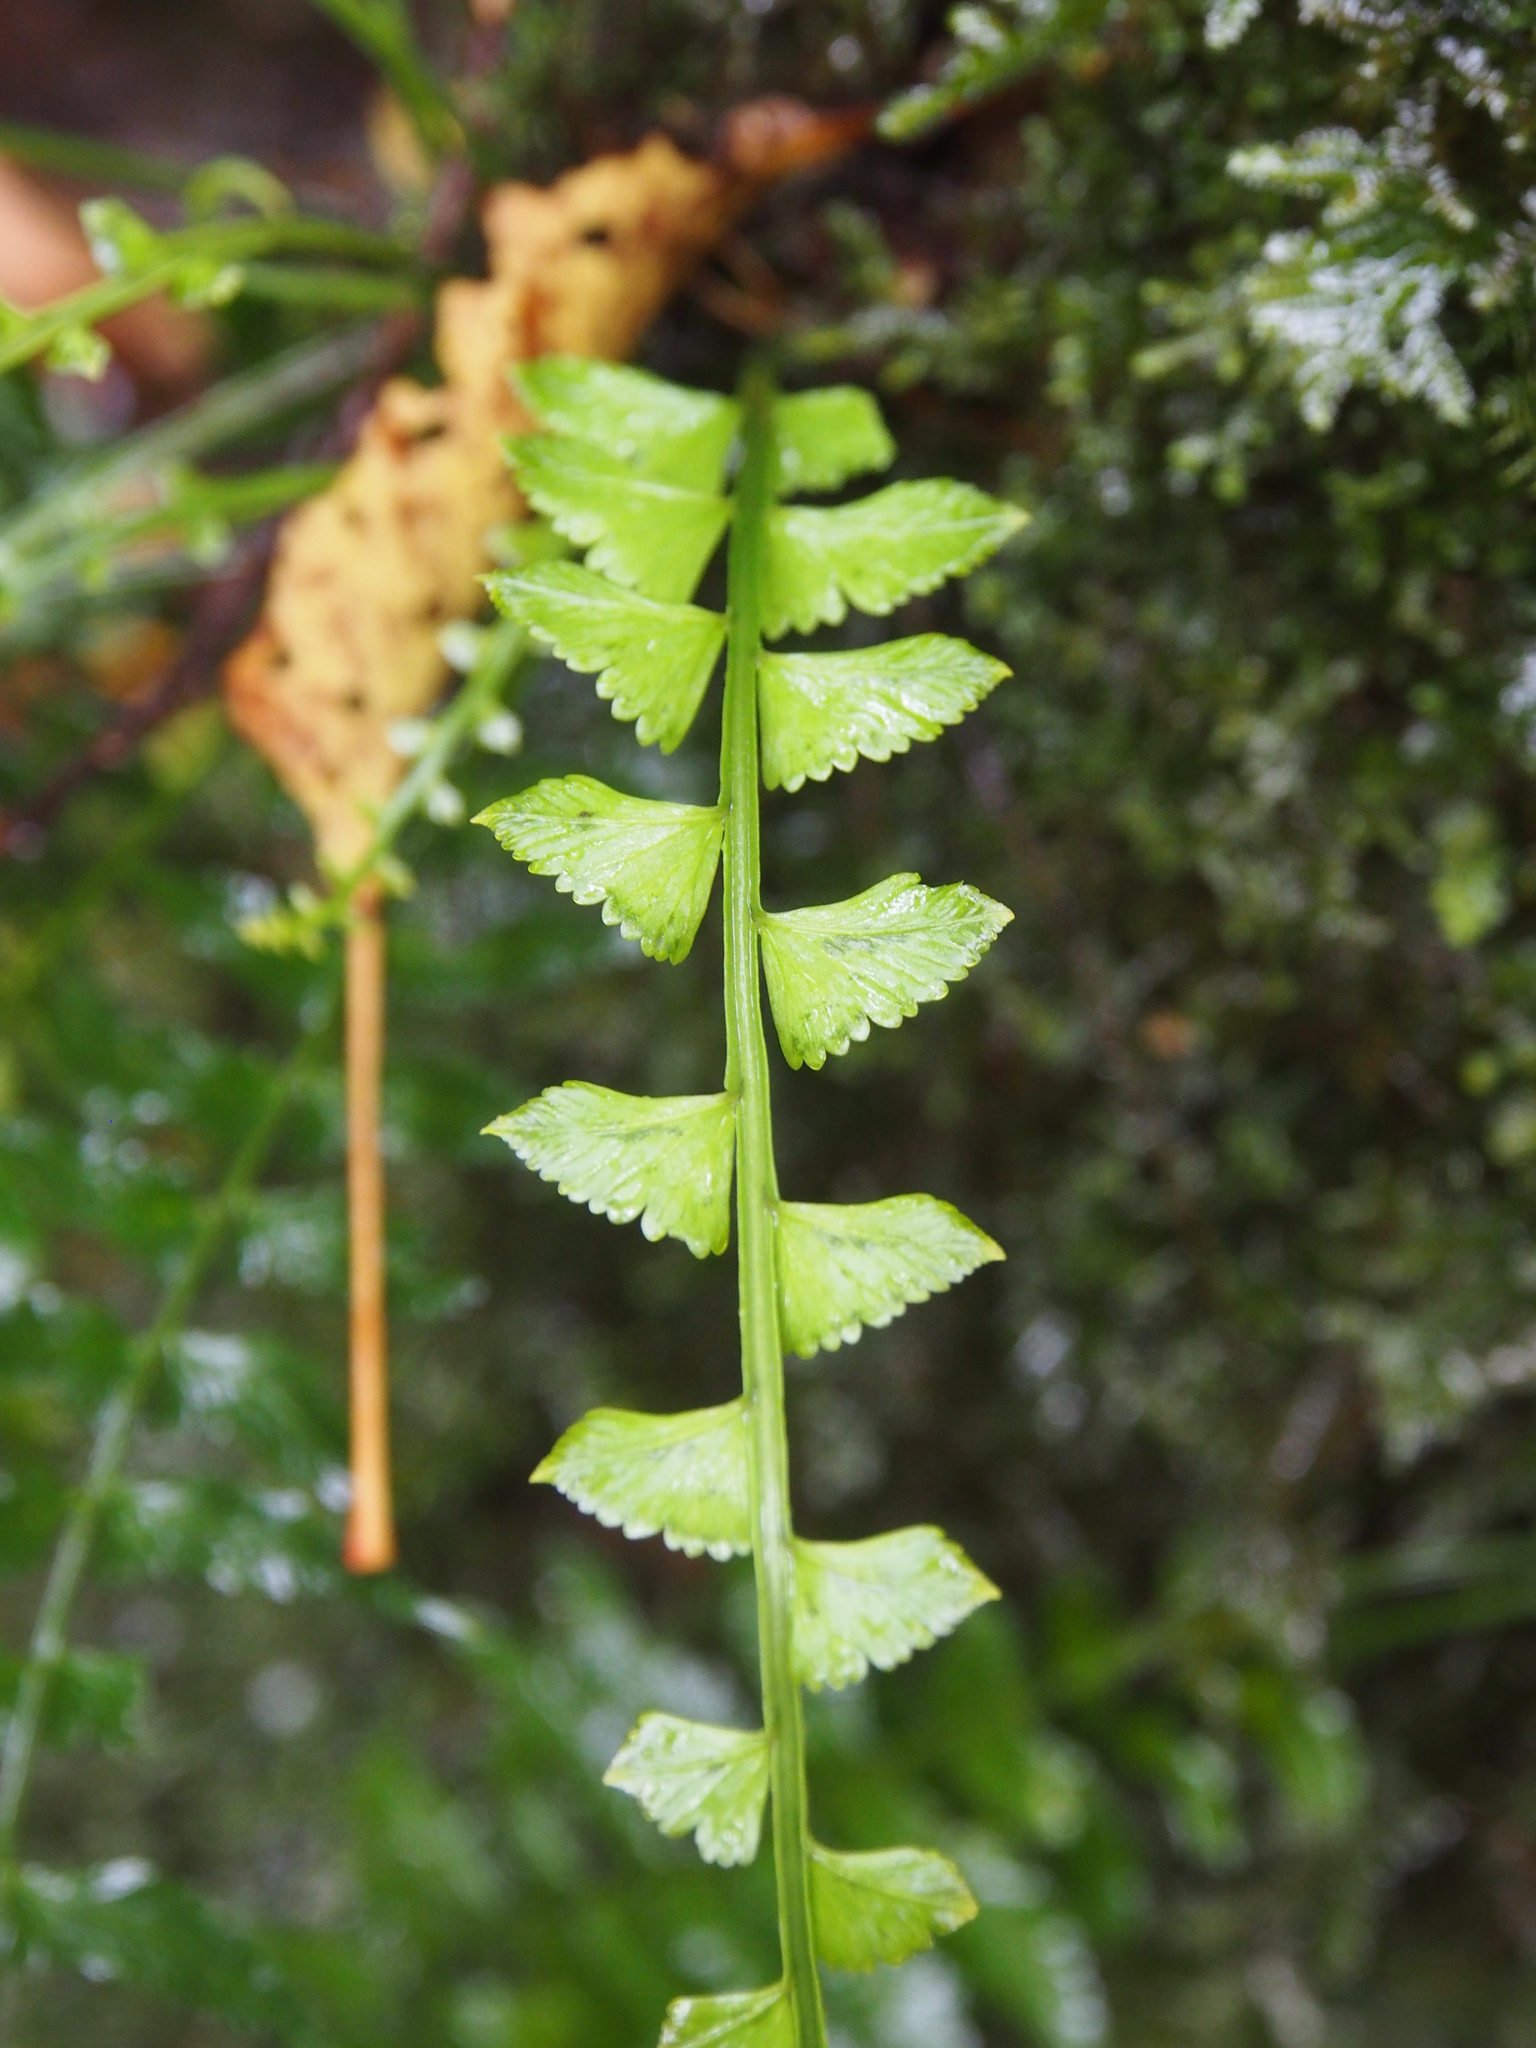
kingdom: Plantae
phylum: Tracheophyta
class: Polypodiopsida
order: Polypodiales
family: Aspleniaceae
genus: Asplenium
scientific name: Asplenium pteropus
